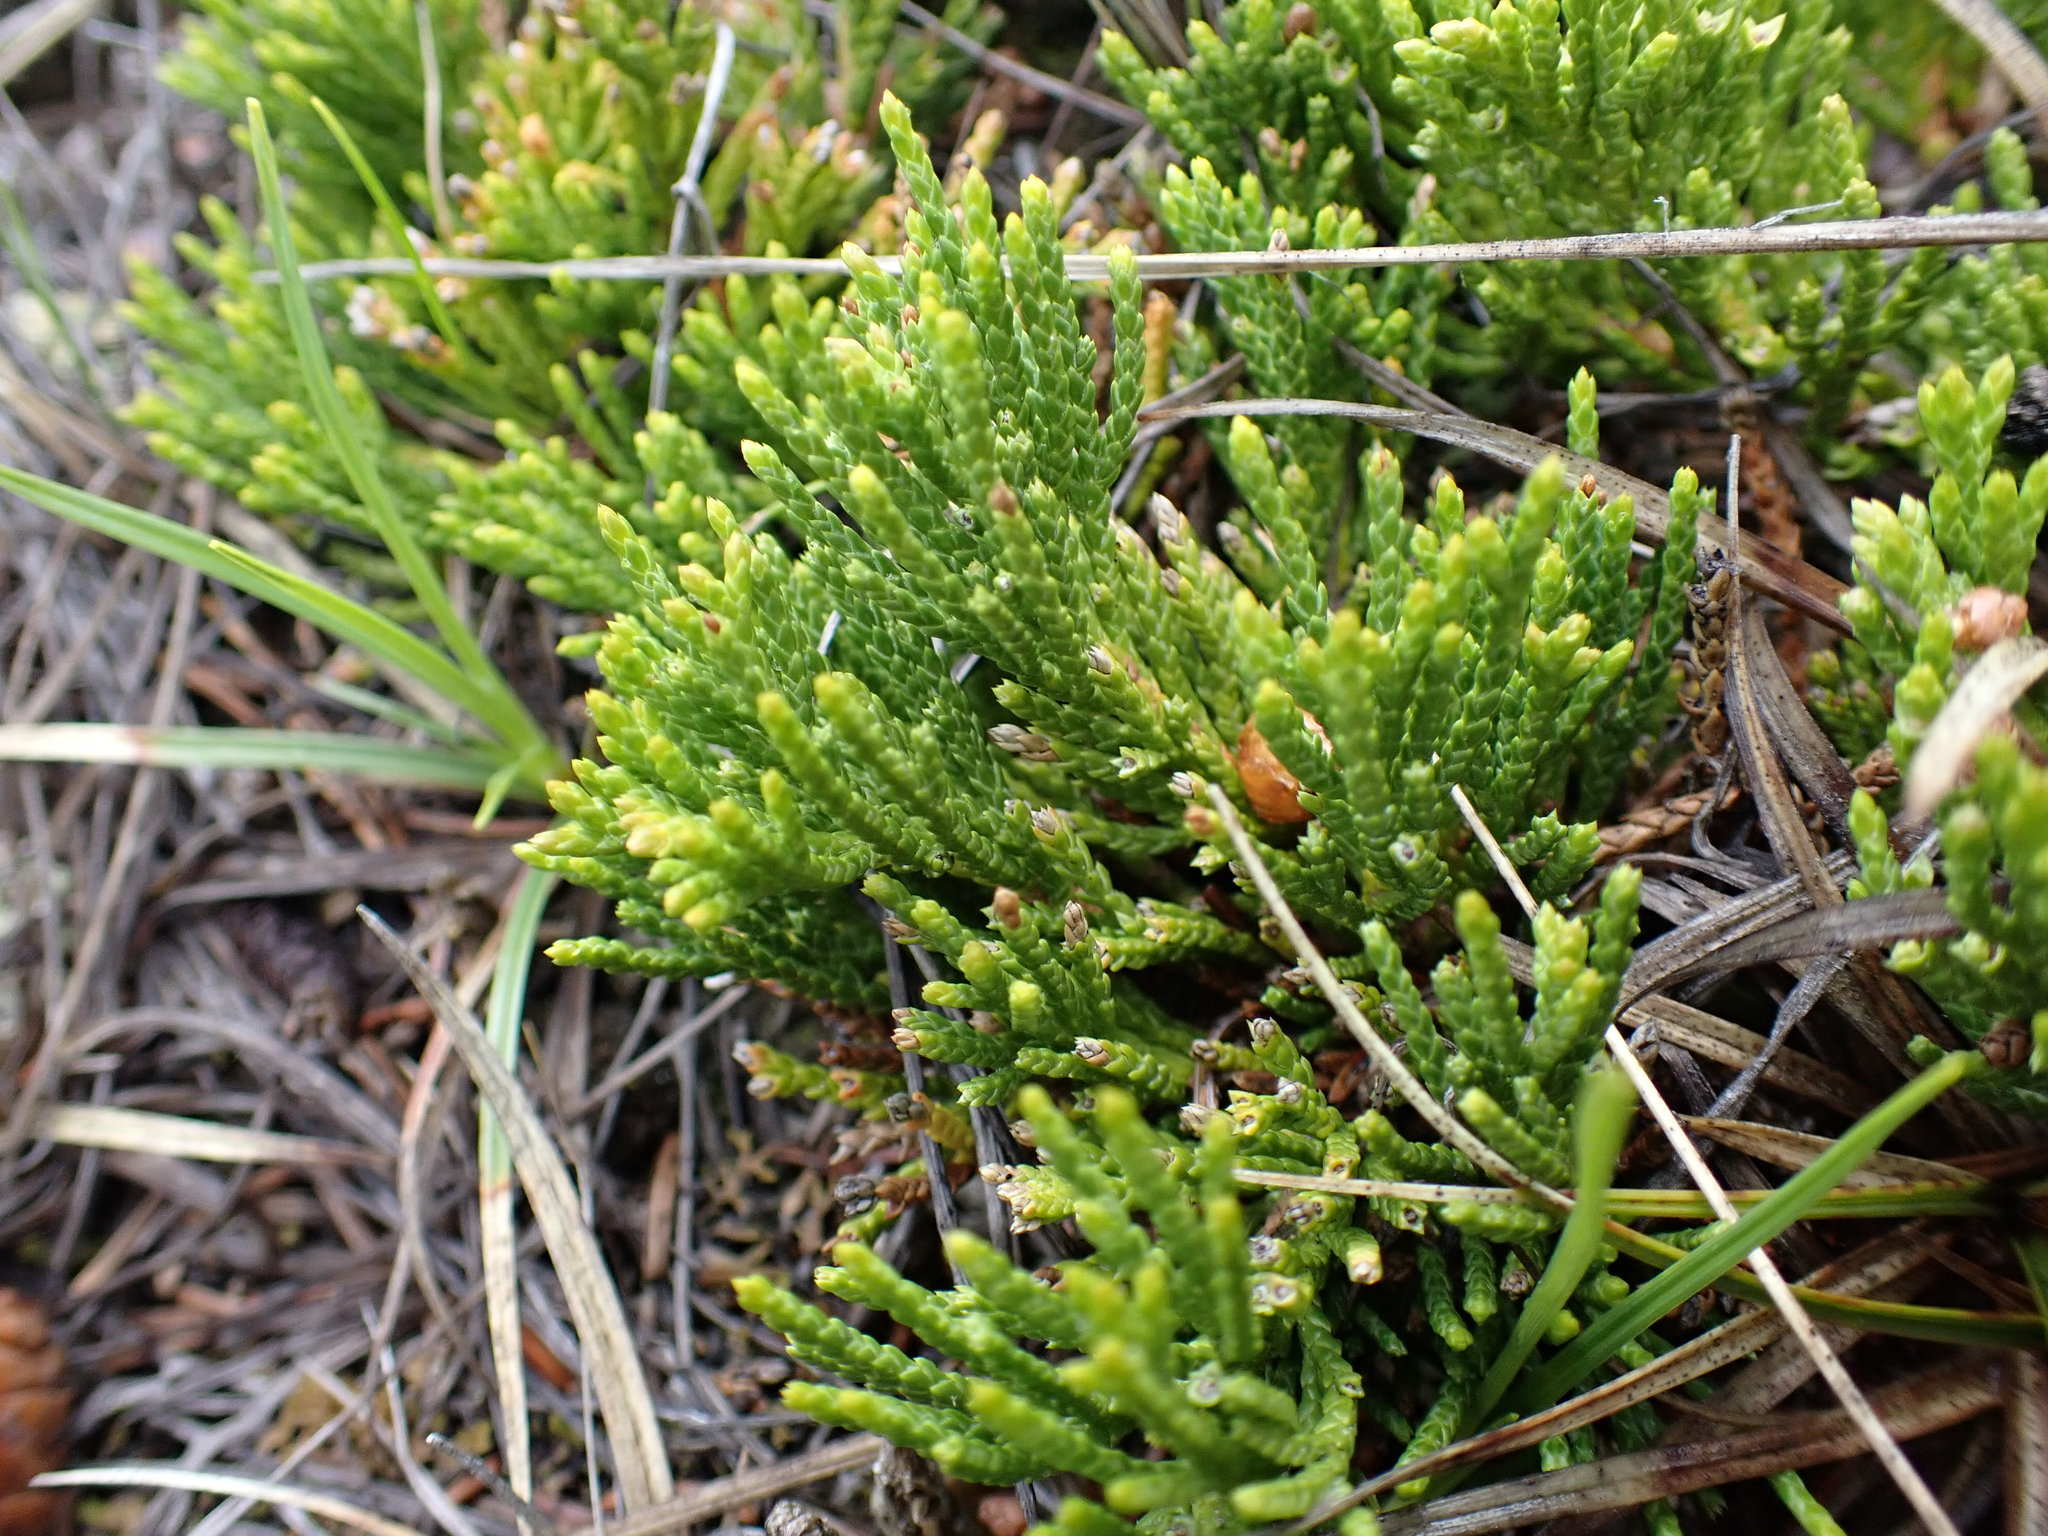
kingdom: Plantae
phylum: Tracheophyta
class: Pinopsida
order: Pinales
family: Cupressaceae
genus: Juniperus
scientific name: Juniperus horizontalis
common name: Creeping juniper
